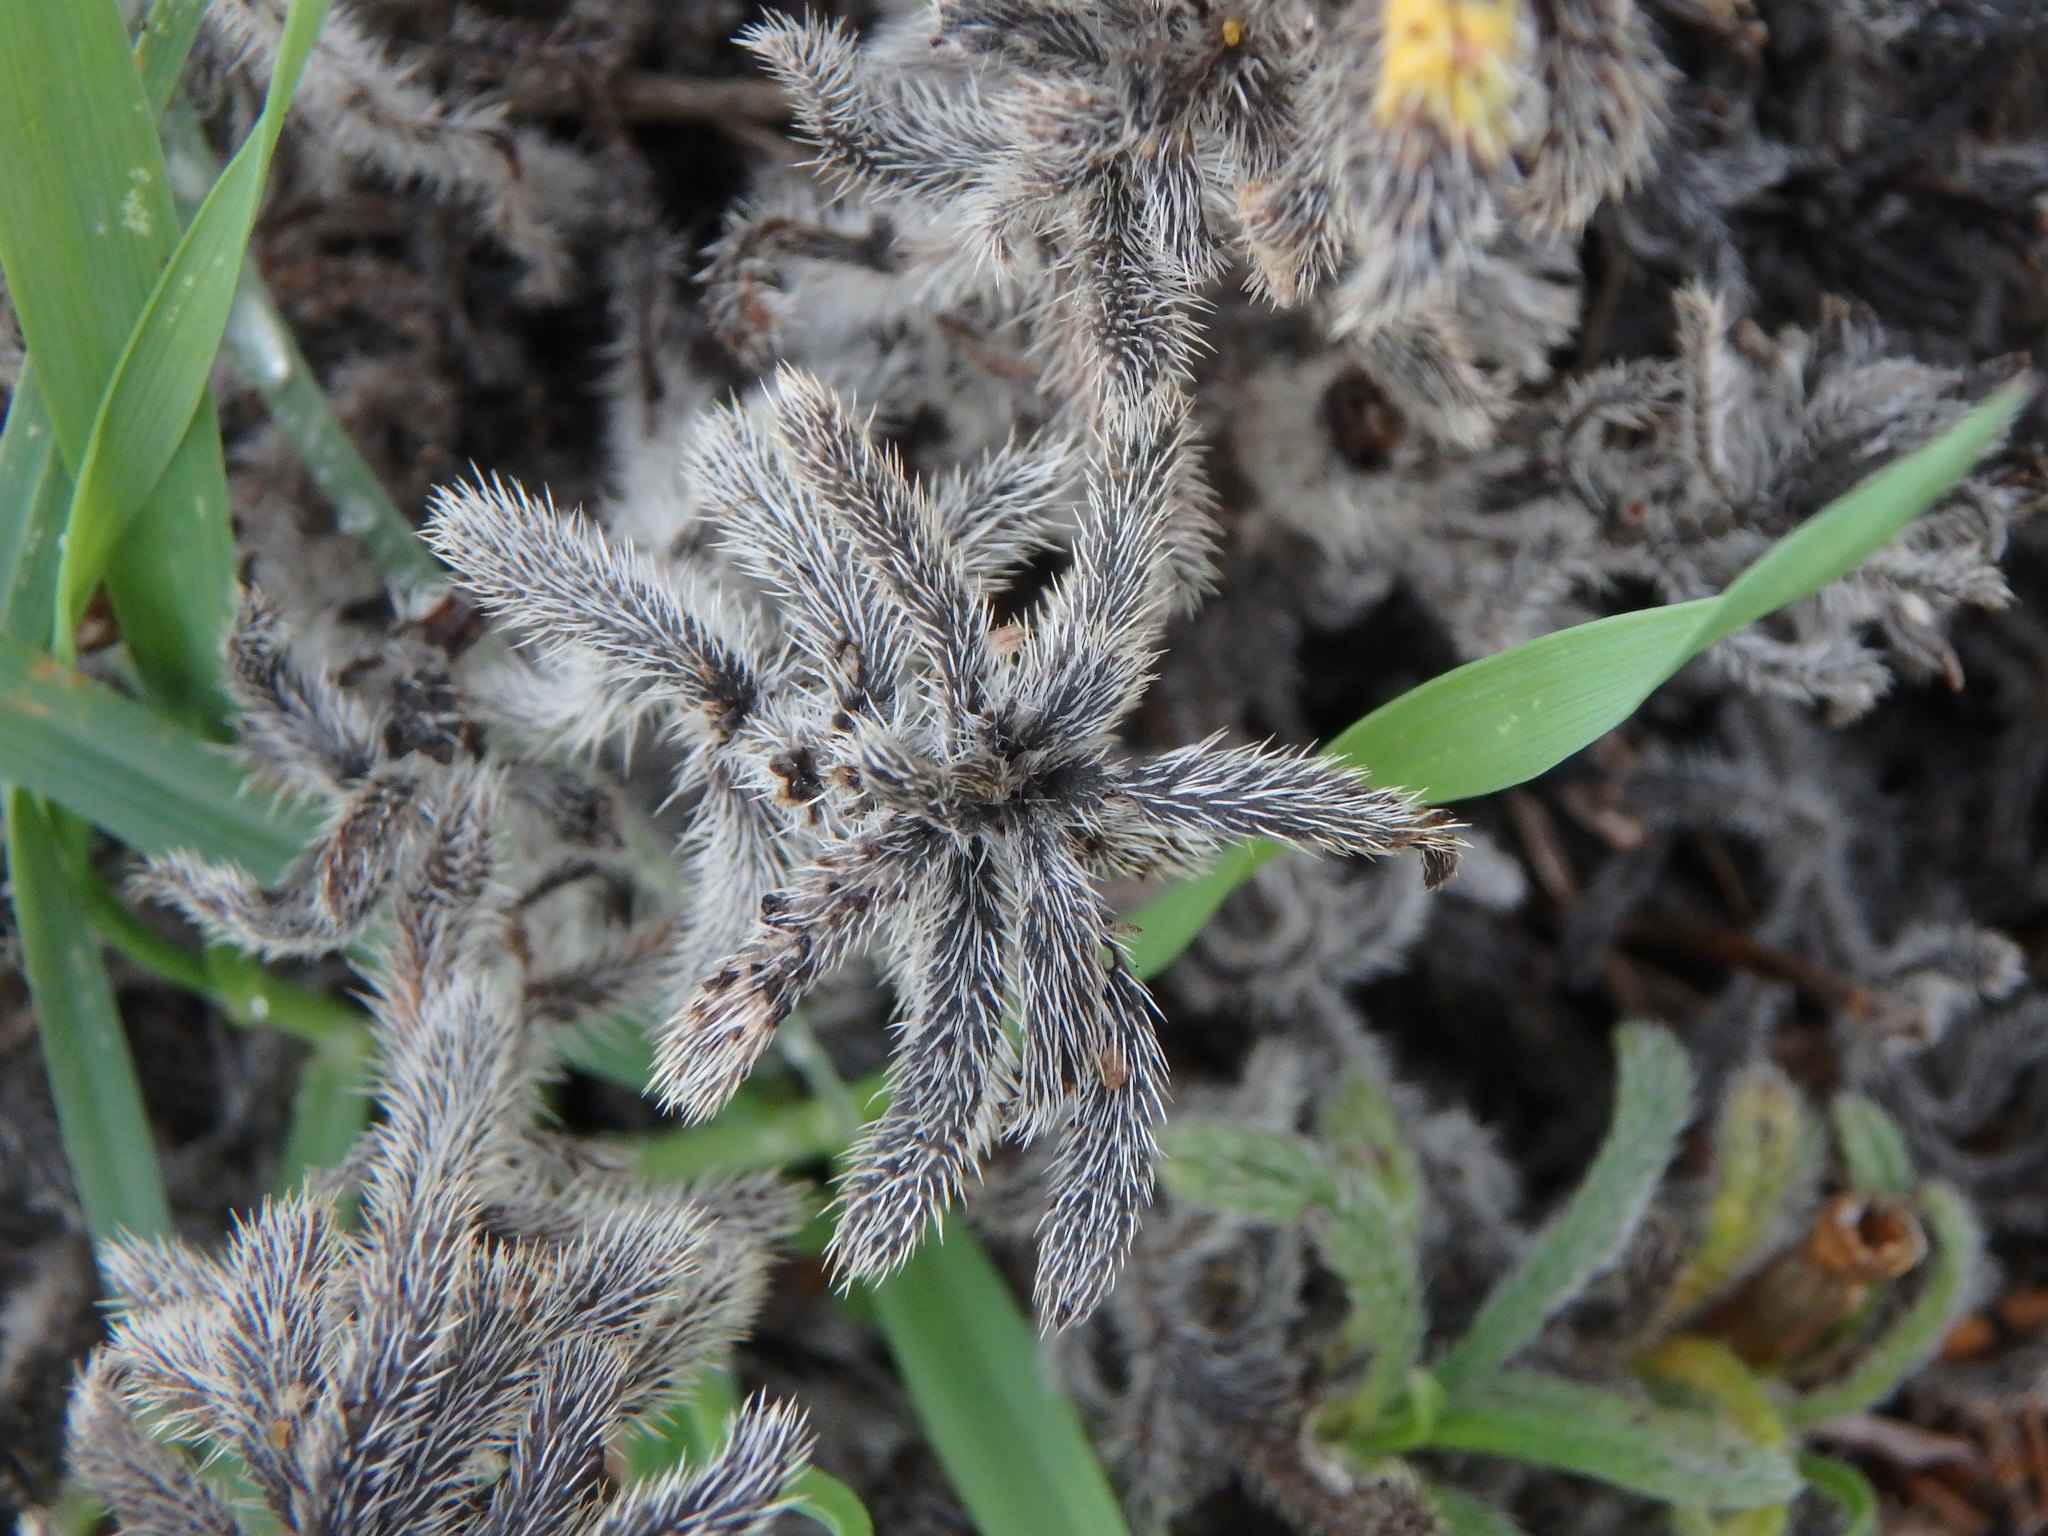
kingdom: Plantae
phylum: Tracheophyta
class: Magnoliopsida
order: Boraginales
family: Boraginaceae
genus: Echium
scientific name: Echium angustifolium
